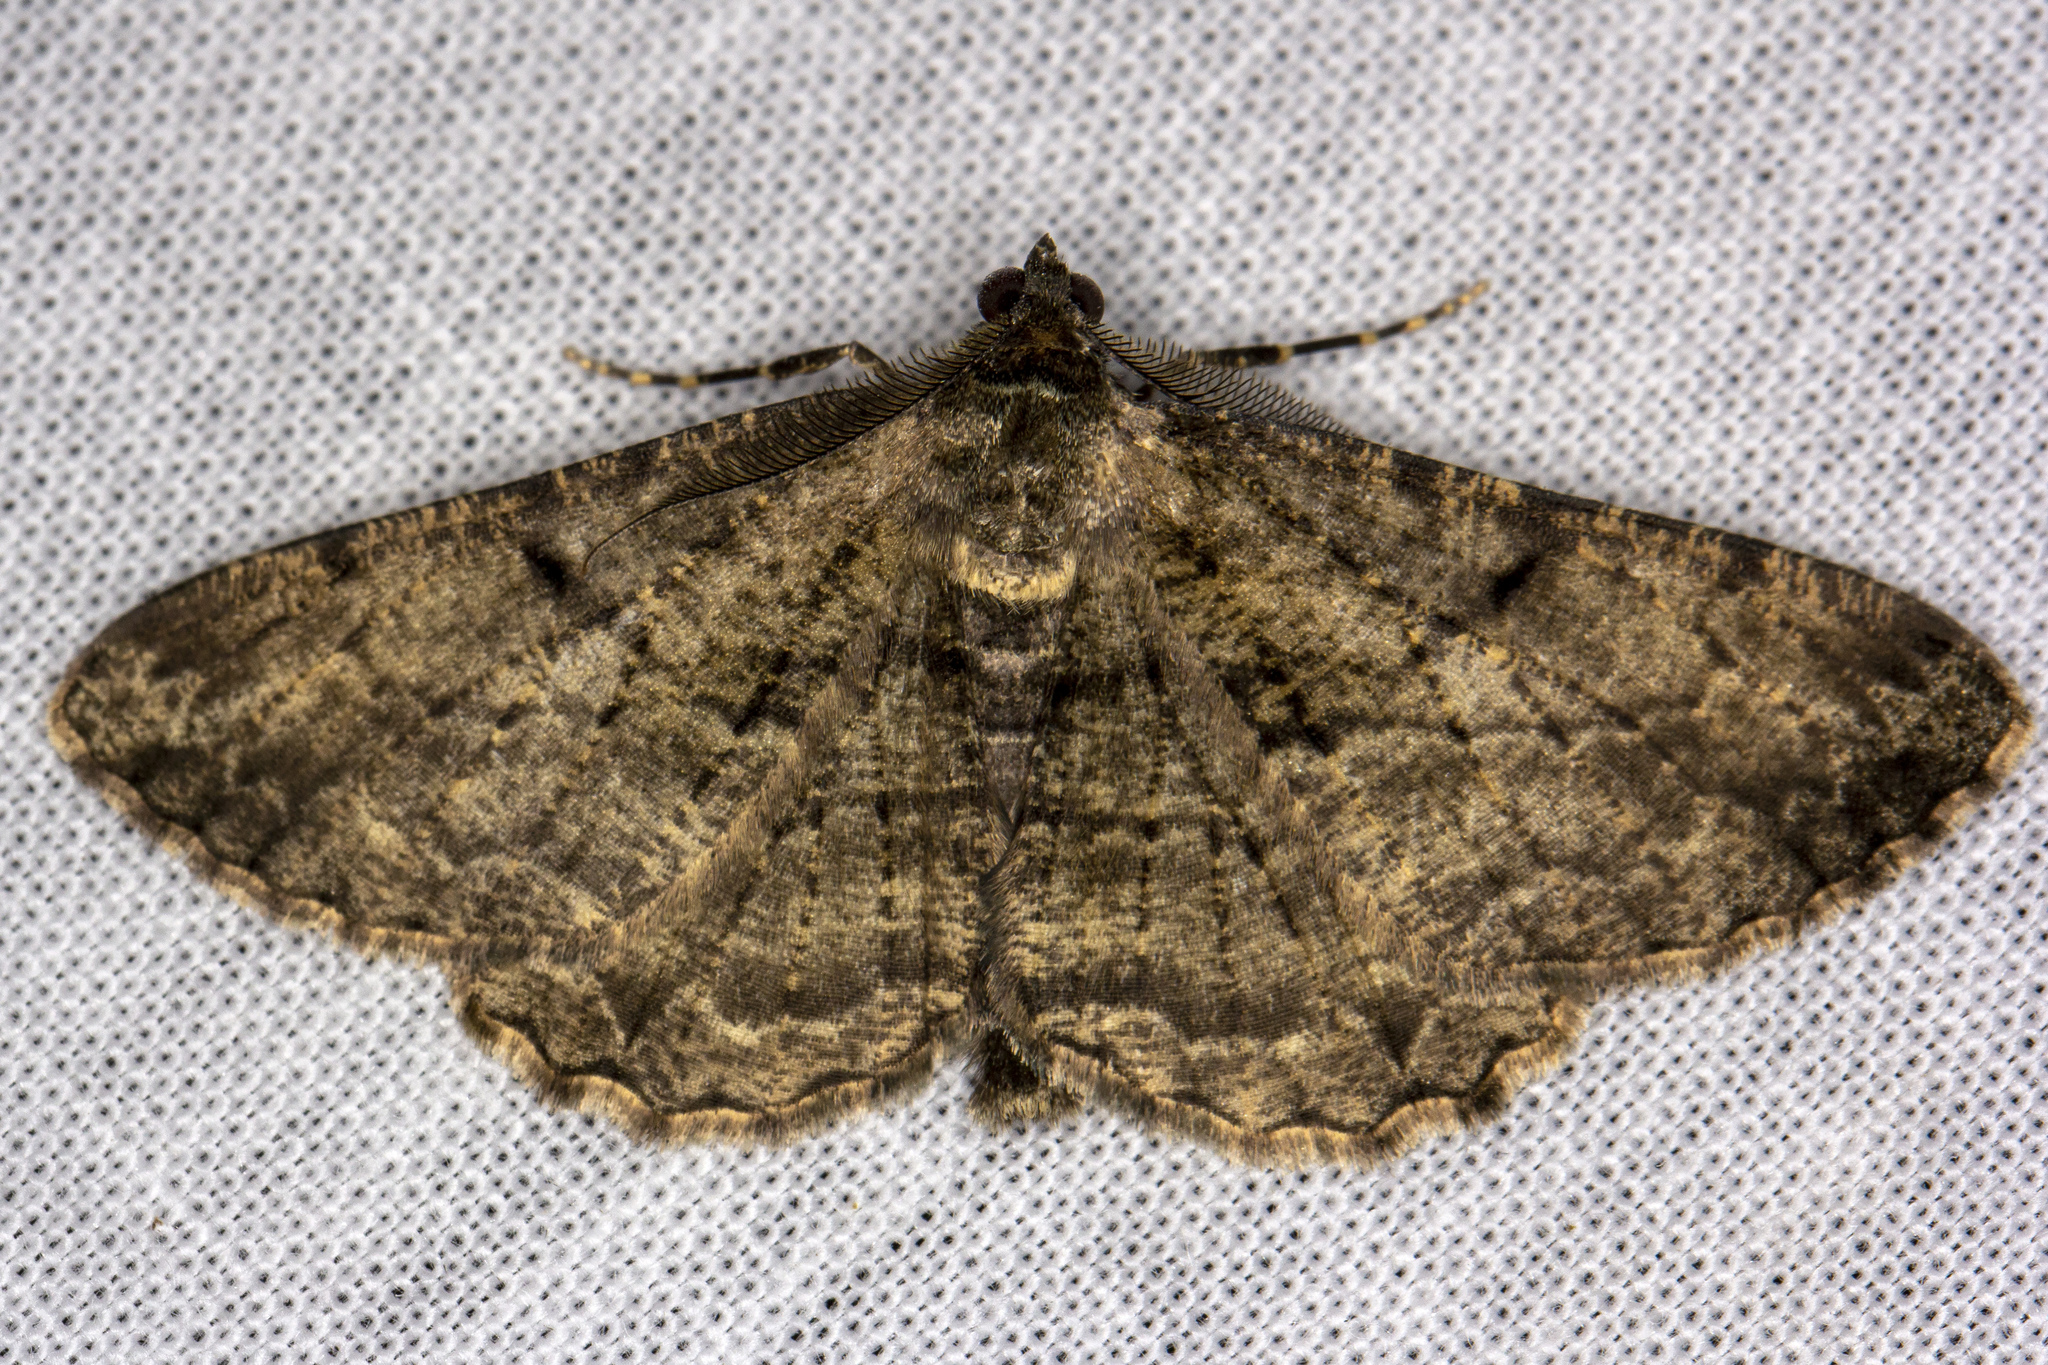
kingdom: Animalia
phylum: Arthropoda
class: Insecta
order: Lepidoptera
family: Geometridae
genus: Peribatodes
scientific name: Peribatodes rhomboidaria
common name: Willow beauty
